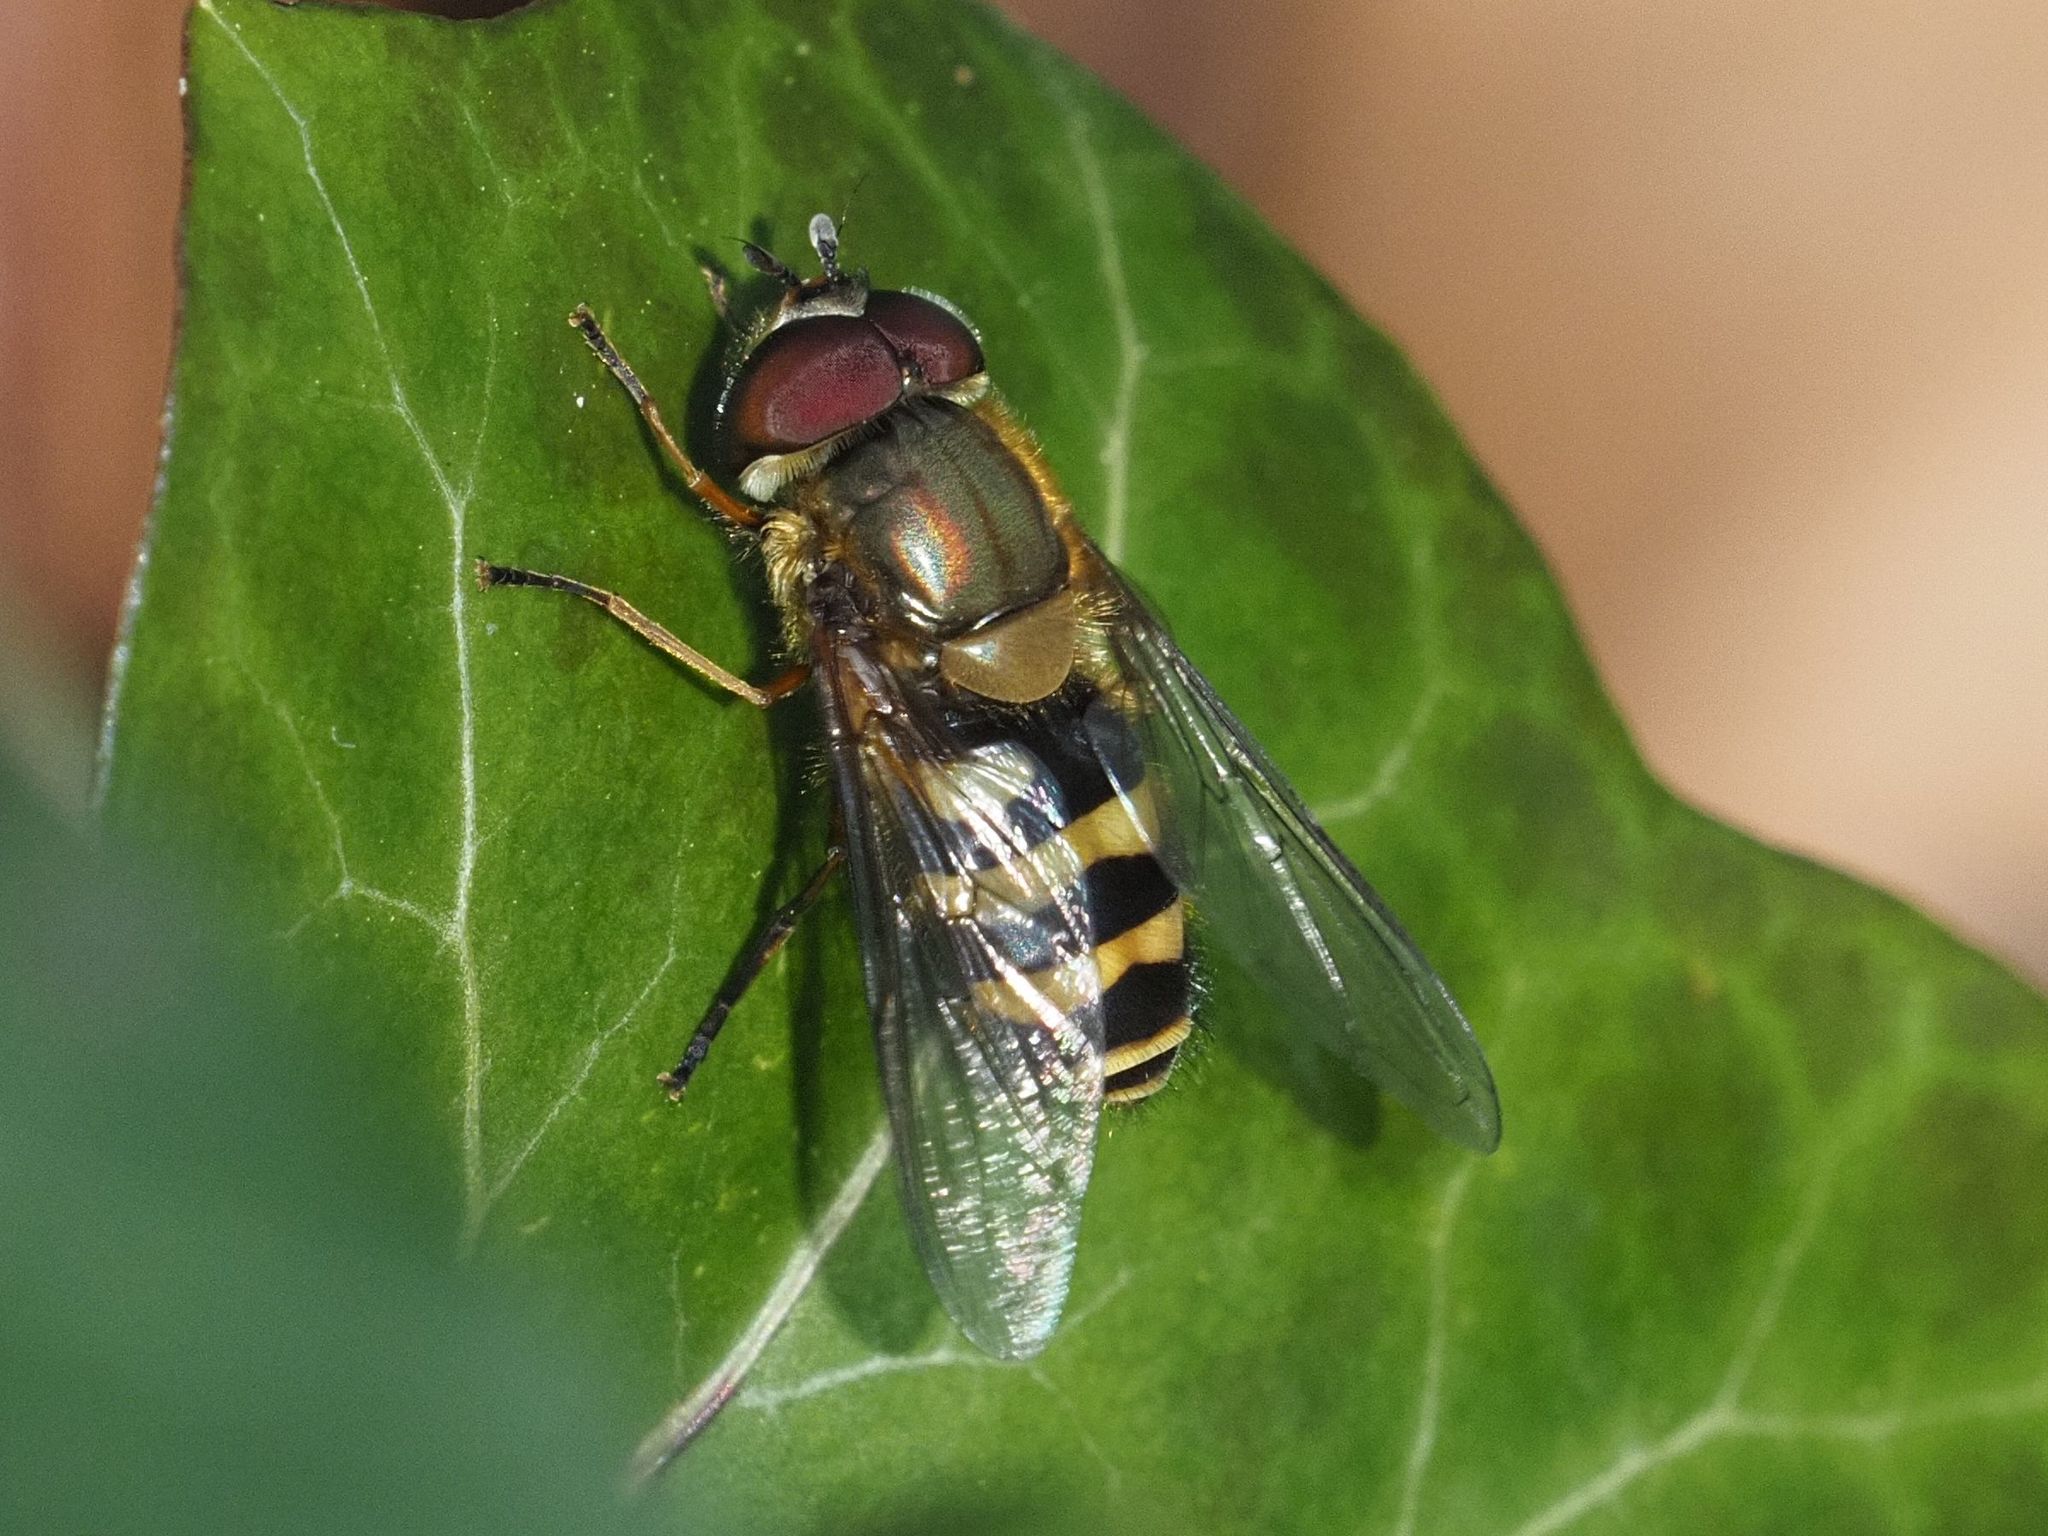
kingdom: Animalia
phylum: Arthropoda
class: Insecta
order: Diptera
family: Syrphidae
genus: Syrphus
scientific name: Syrphus torvus
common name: Hairy-eyed flower fly
